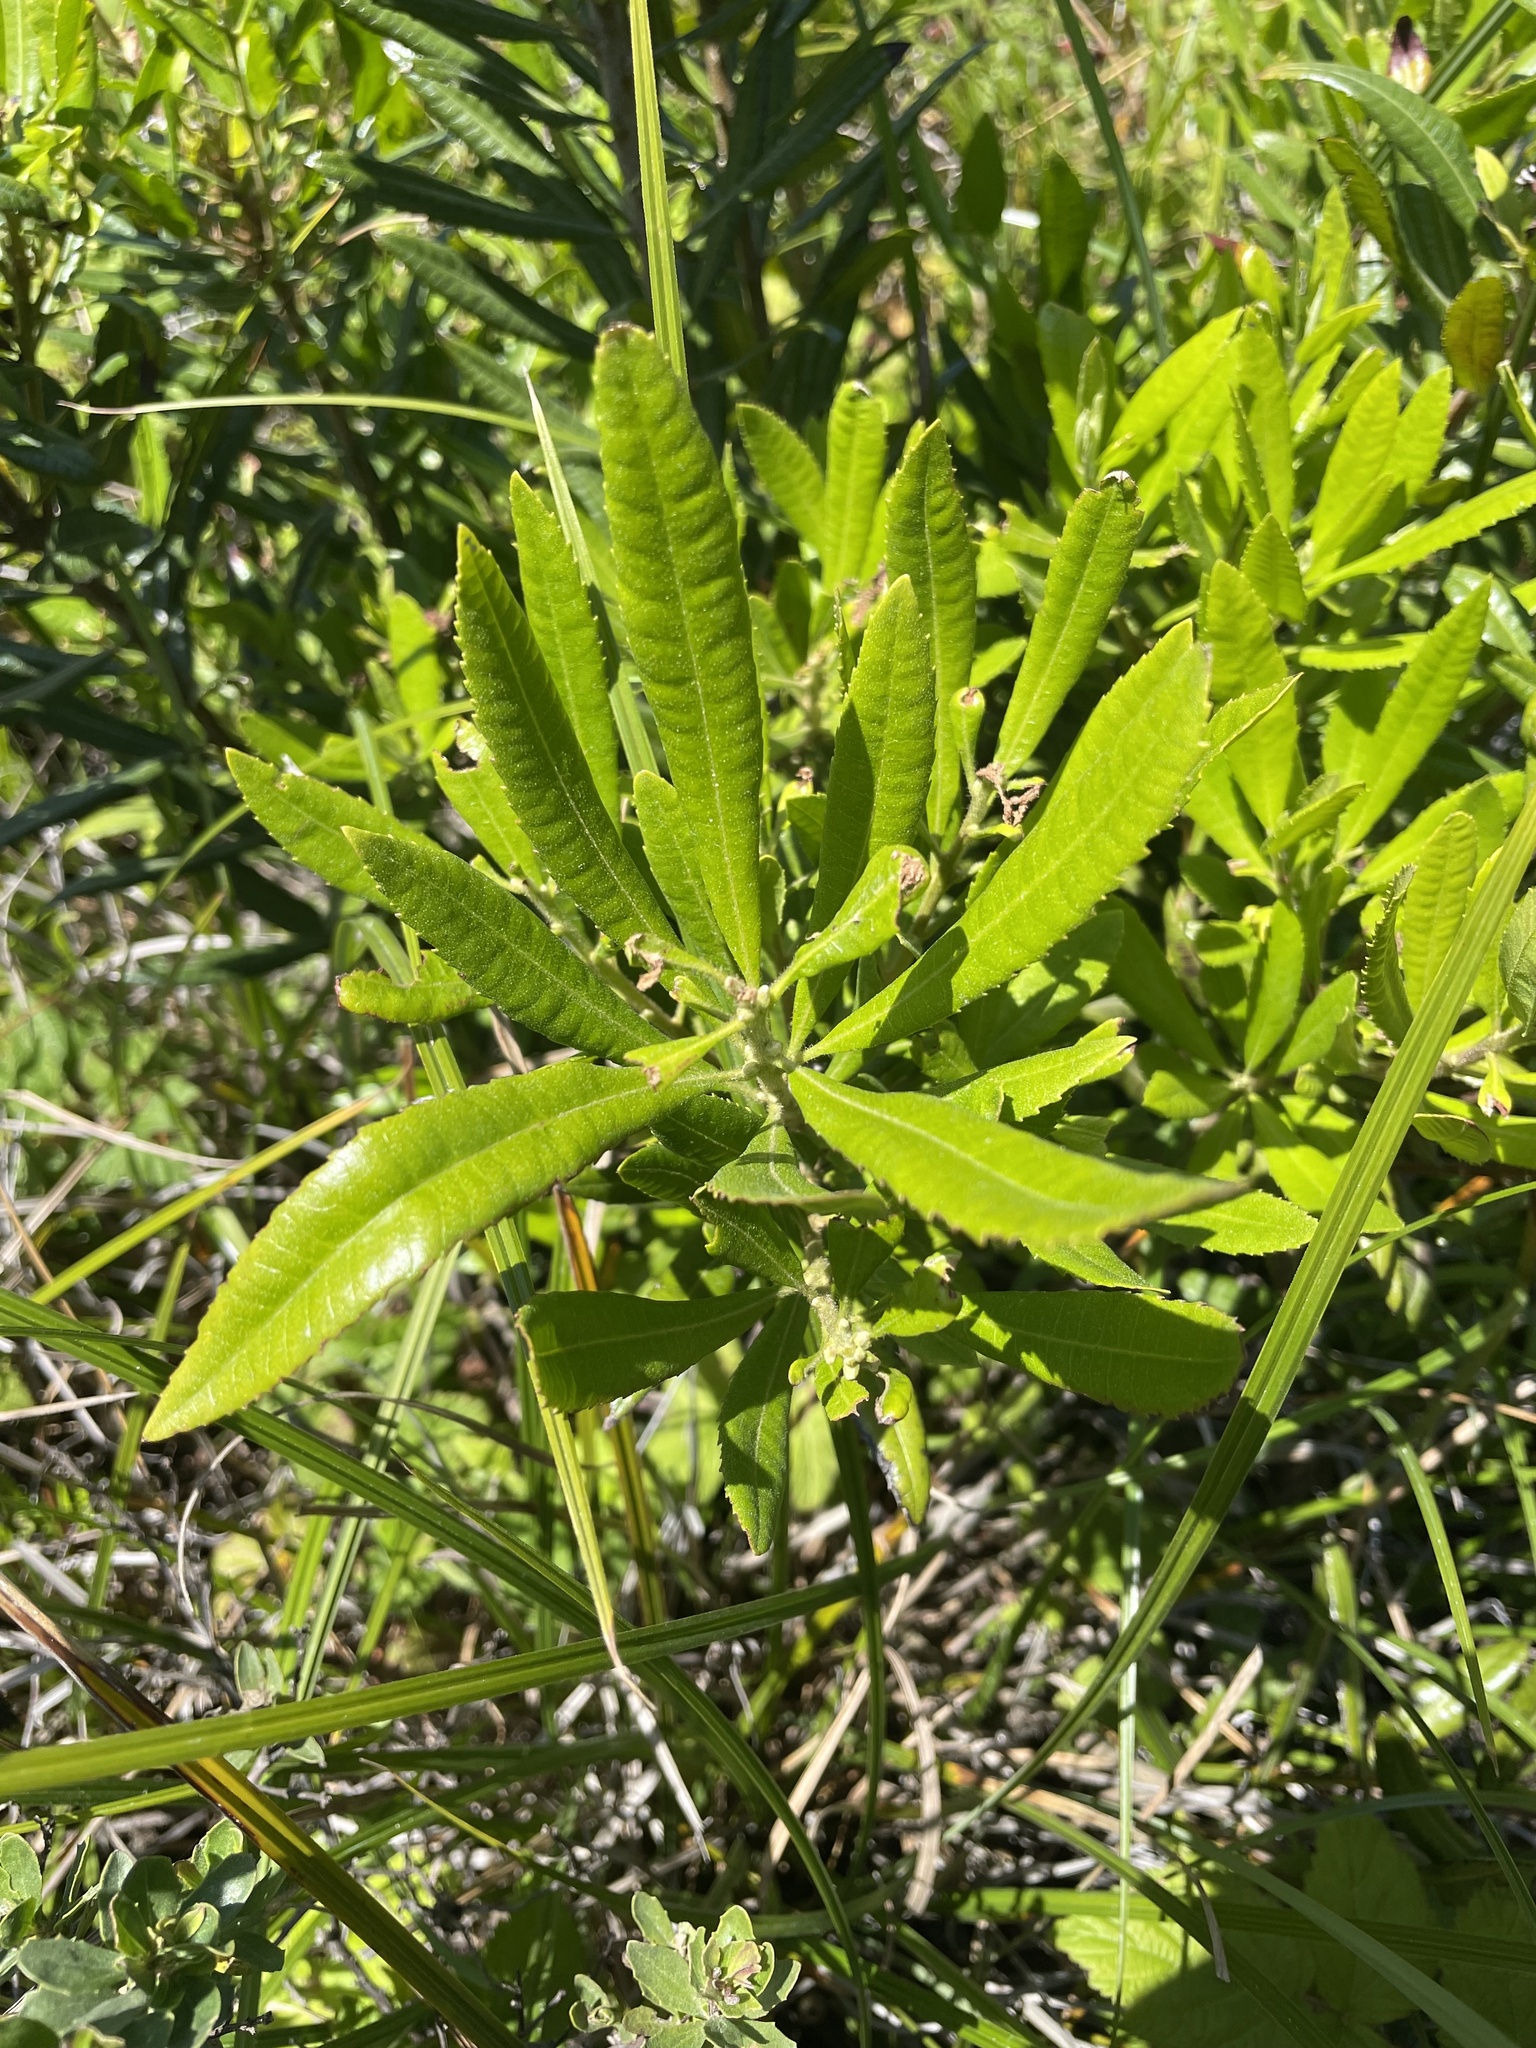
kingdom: Plantae
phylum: Tracheophyta
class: Magnoliopsida
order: Fagales
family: Myricaceae
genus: Morella
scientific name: Morella californica
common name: California wax-myrtle
